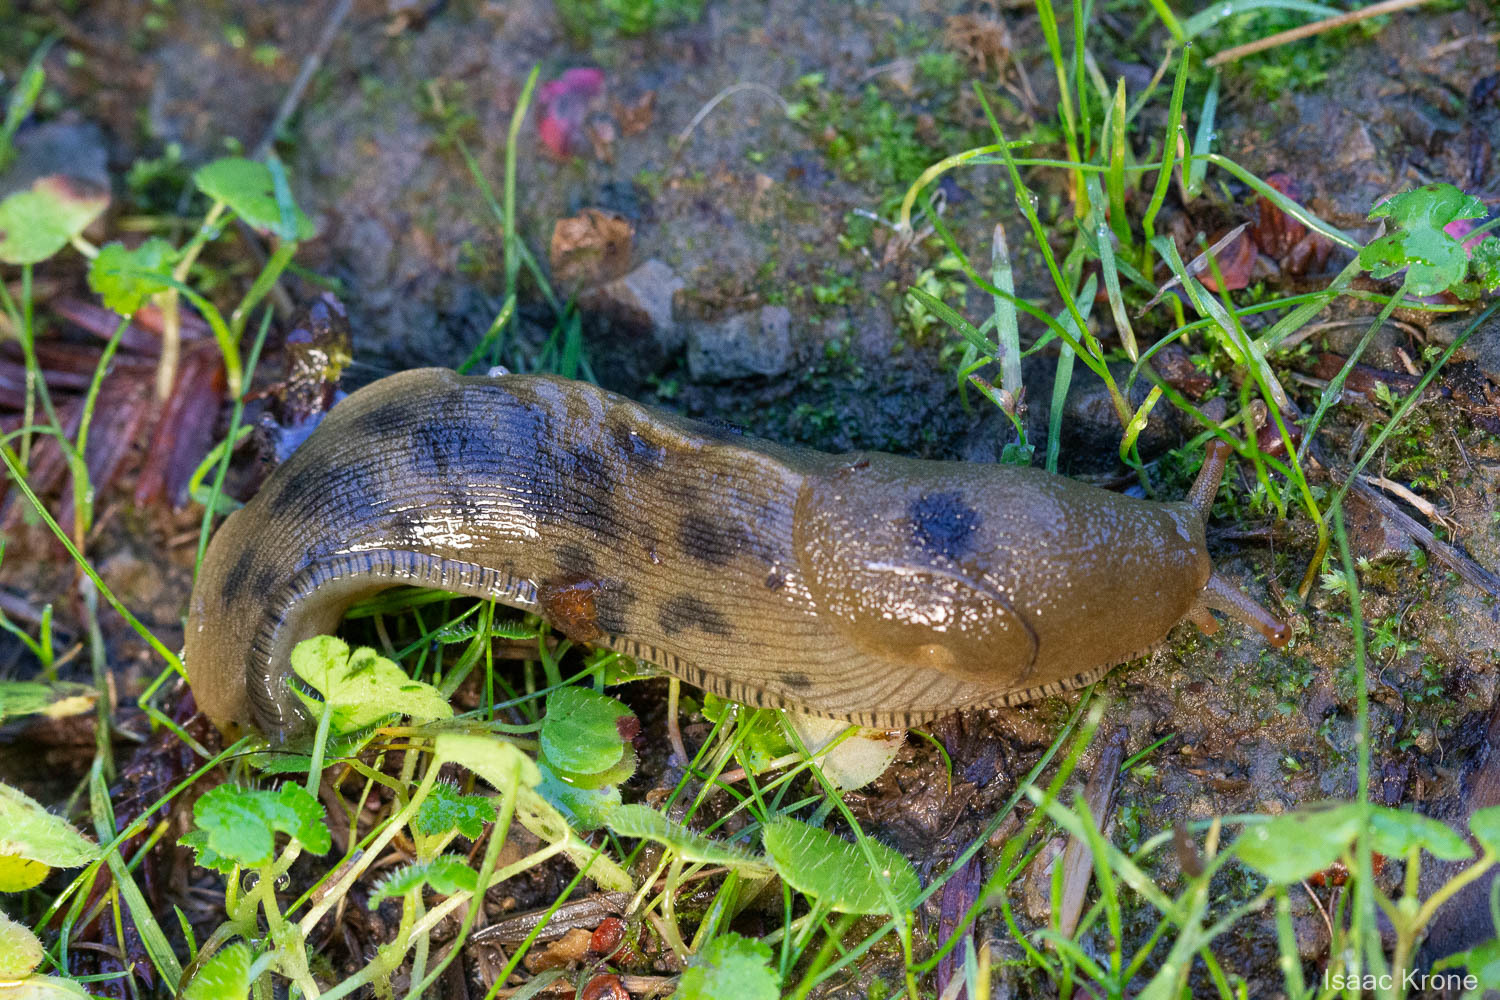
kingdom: Animalia
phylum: Mollusca
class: Gastropoda
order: Stylommatophora
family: Ariolimacidae
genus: Ariolimax
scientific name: Ariolimax buttoni
